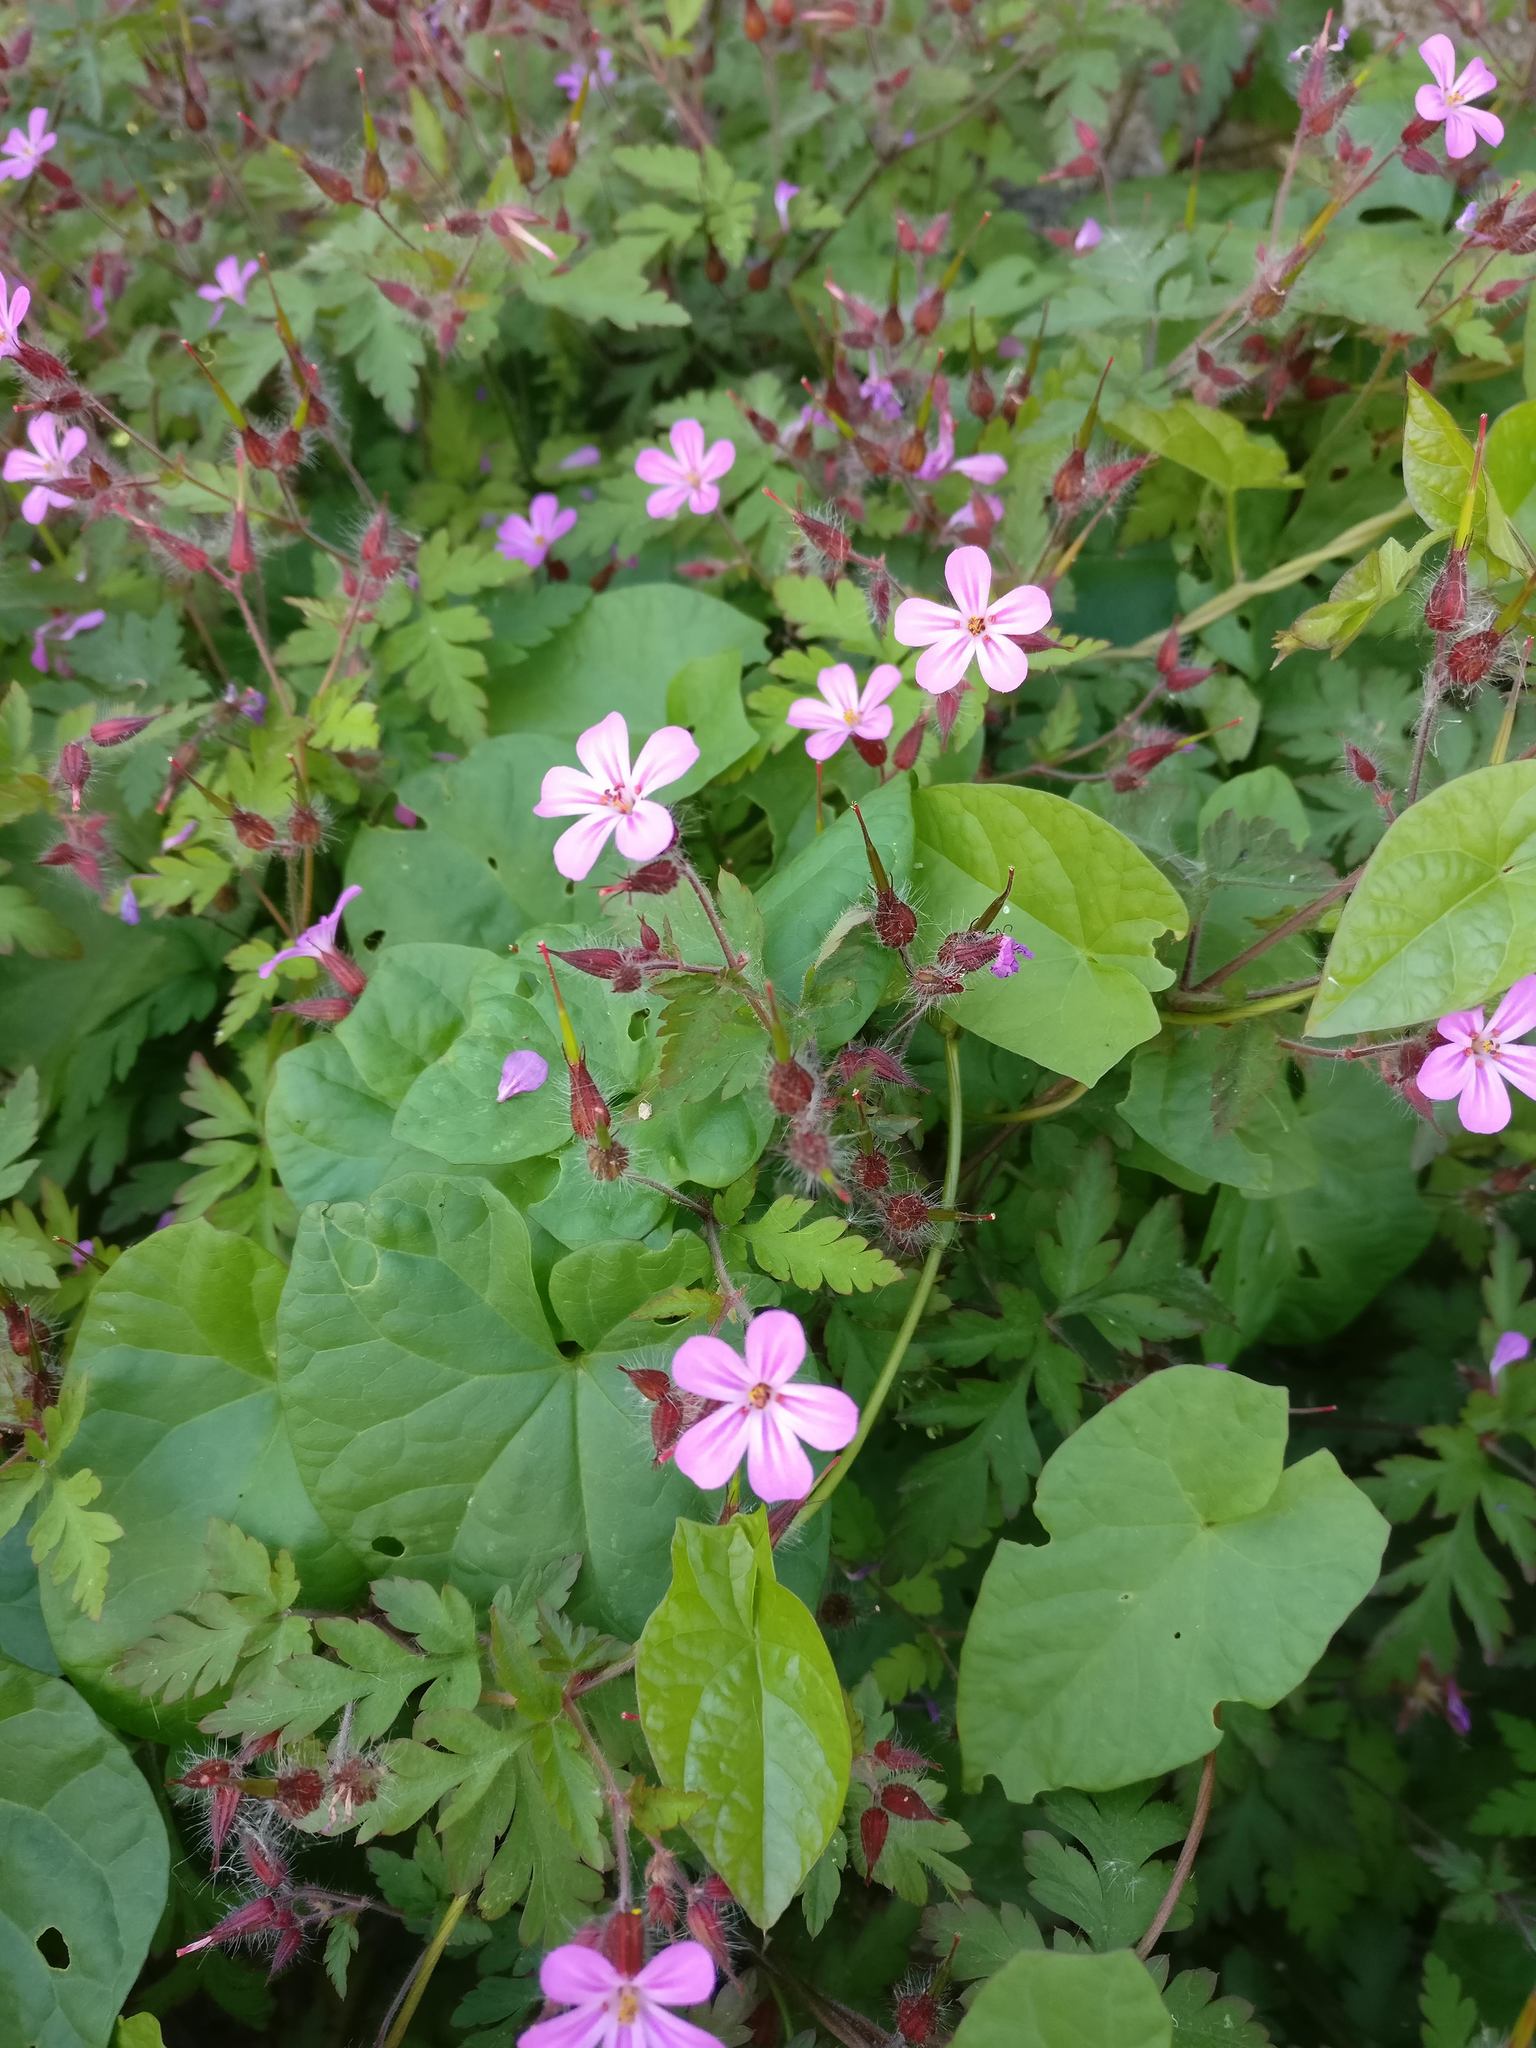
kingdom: Plantae
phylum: Tracheophyta
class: Magnoliopsida
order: Geraniales
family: Geraniaceae
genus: Geranium
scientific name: Geranium robertianum
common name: Herb-robert
